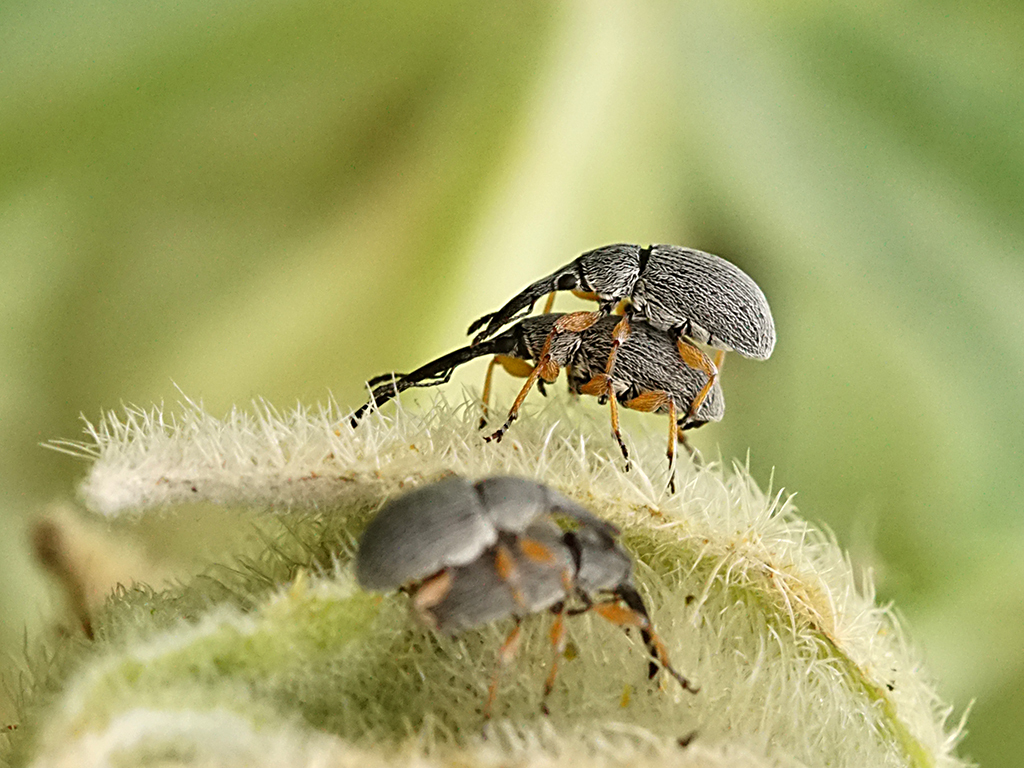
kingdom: Animalia
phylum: Arthropoda
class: Insecta
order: Coleoptera
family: Brentidae
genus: Rhopalapion
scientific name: Rhopalapion longirostre
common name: Hollyhock weevil
